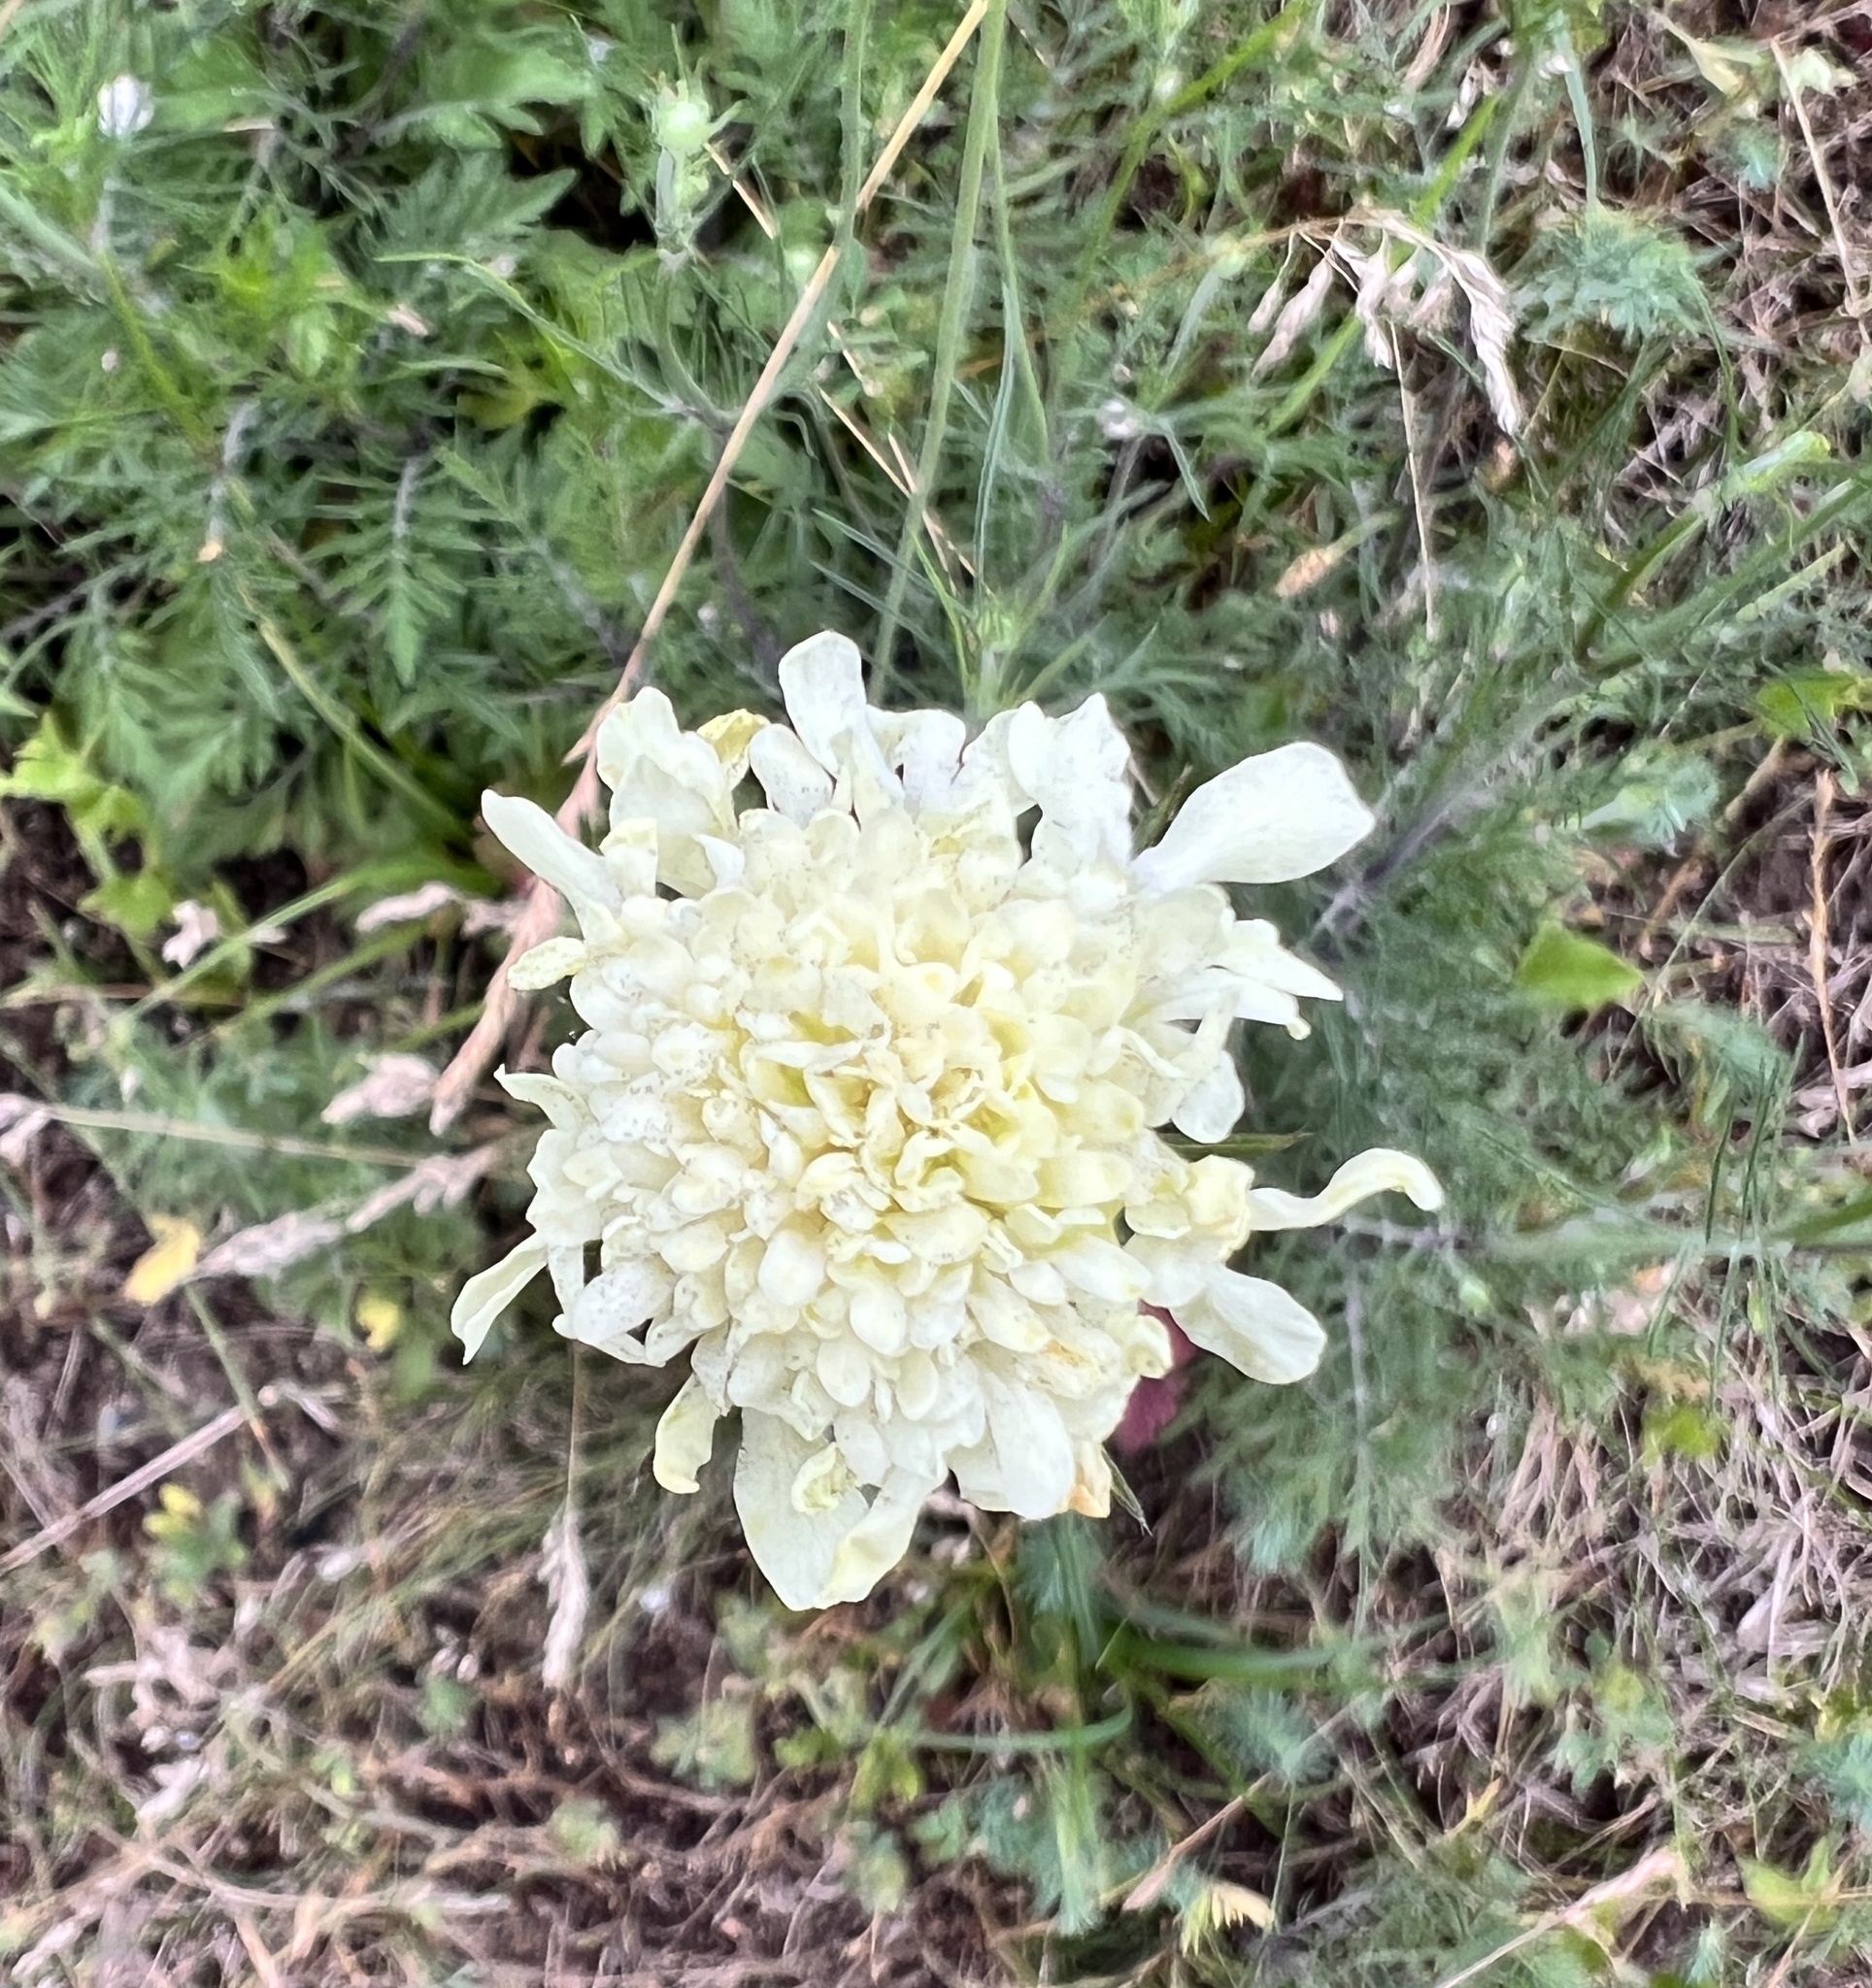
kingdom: Plantae
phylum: Tracheophyta
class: Magnoliopsida
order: Dipsacales
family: Caprifoliaceae
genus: Scabiosa
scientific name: Scabiosa ochroleuca
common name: Cream pincushions
